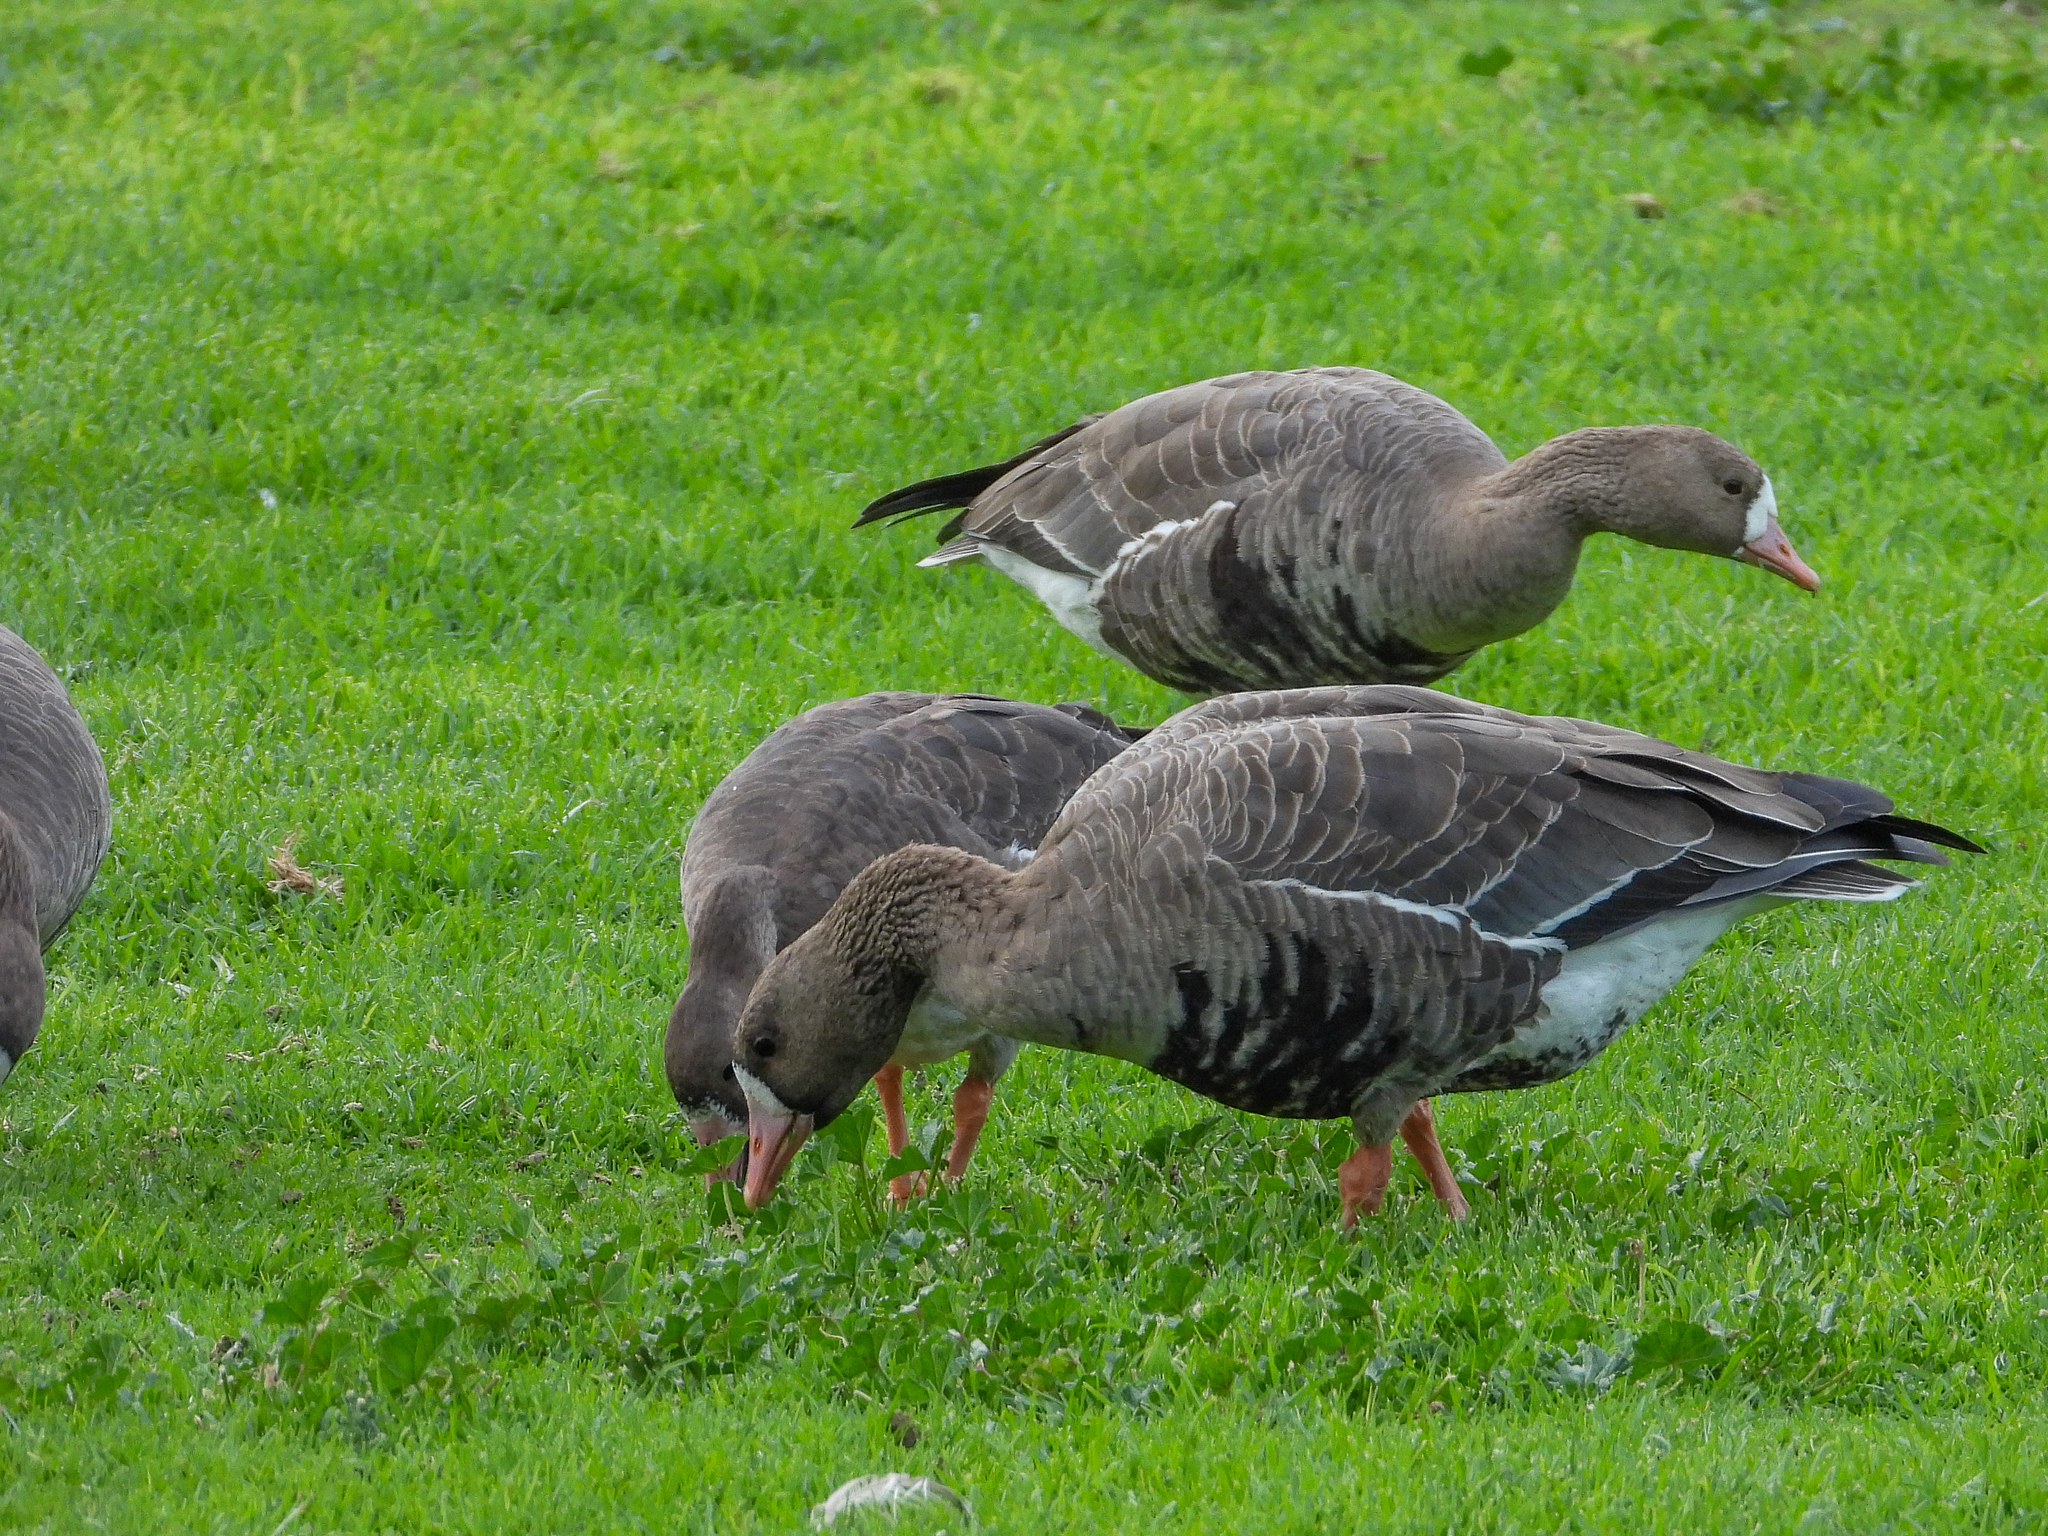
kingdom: Animalia
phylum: Chordata
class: Aves
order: Anseriformes
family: Anatidae
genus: Anser
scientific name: Anser albifrons
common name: Greater white-fronted goose
